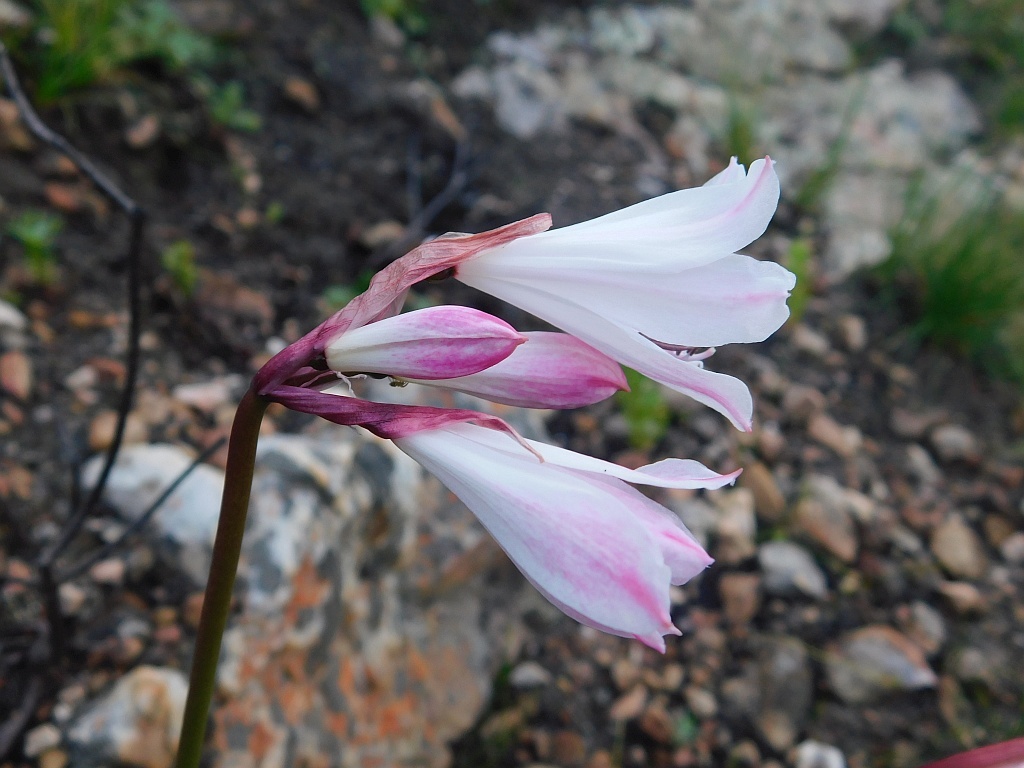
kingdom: Plantae
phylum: Tracheophyta
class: Liliopsida
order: Asparagales
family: Amaryllidaceae
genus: Nerine
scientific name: Nerine pudica
